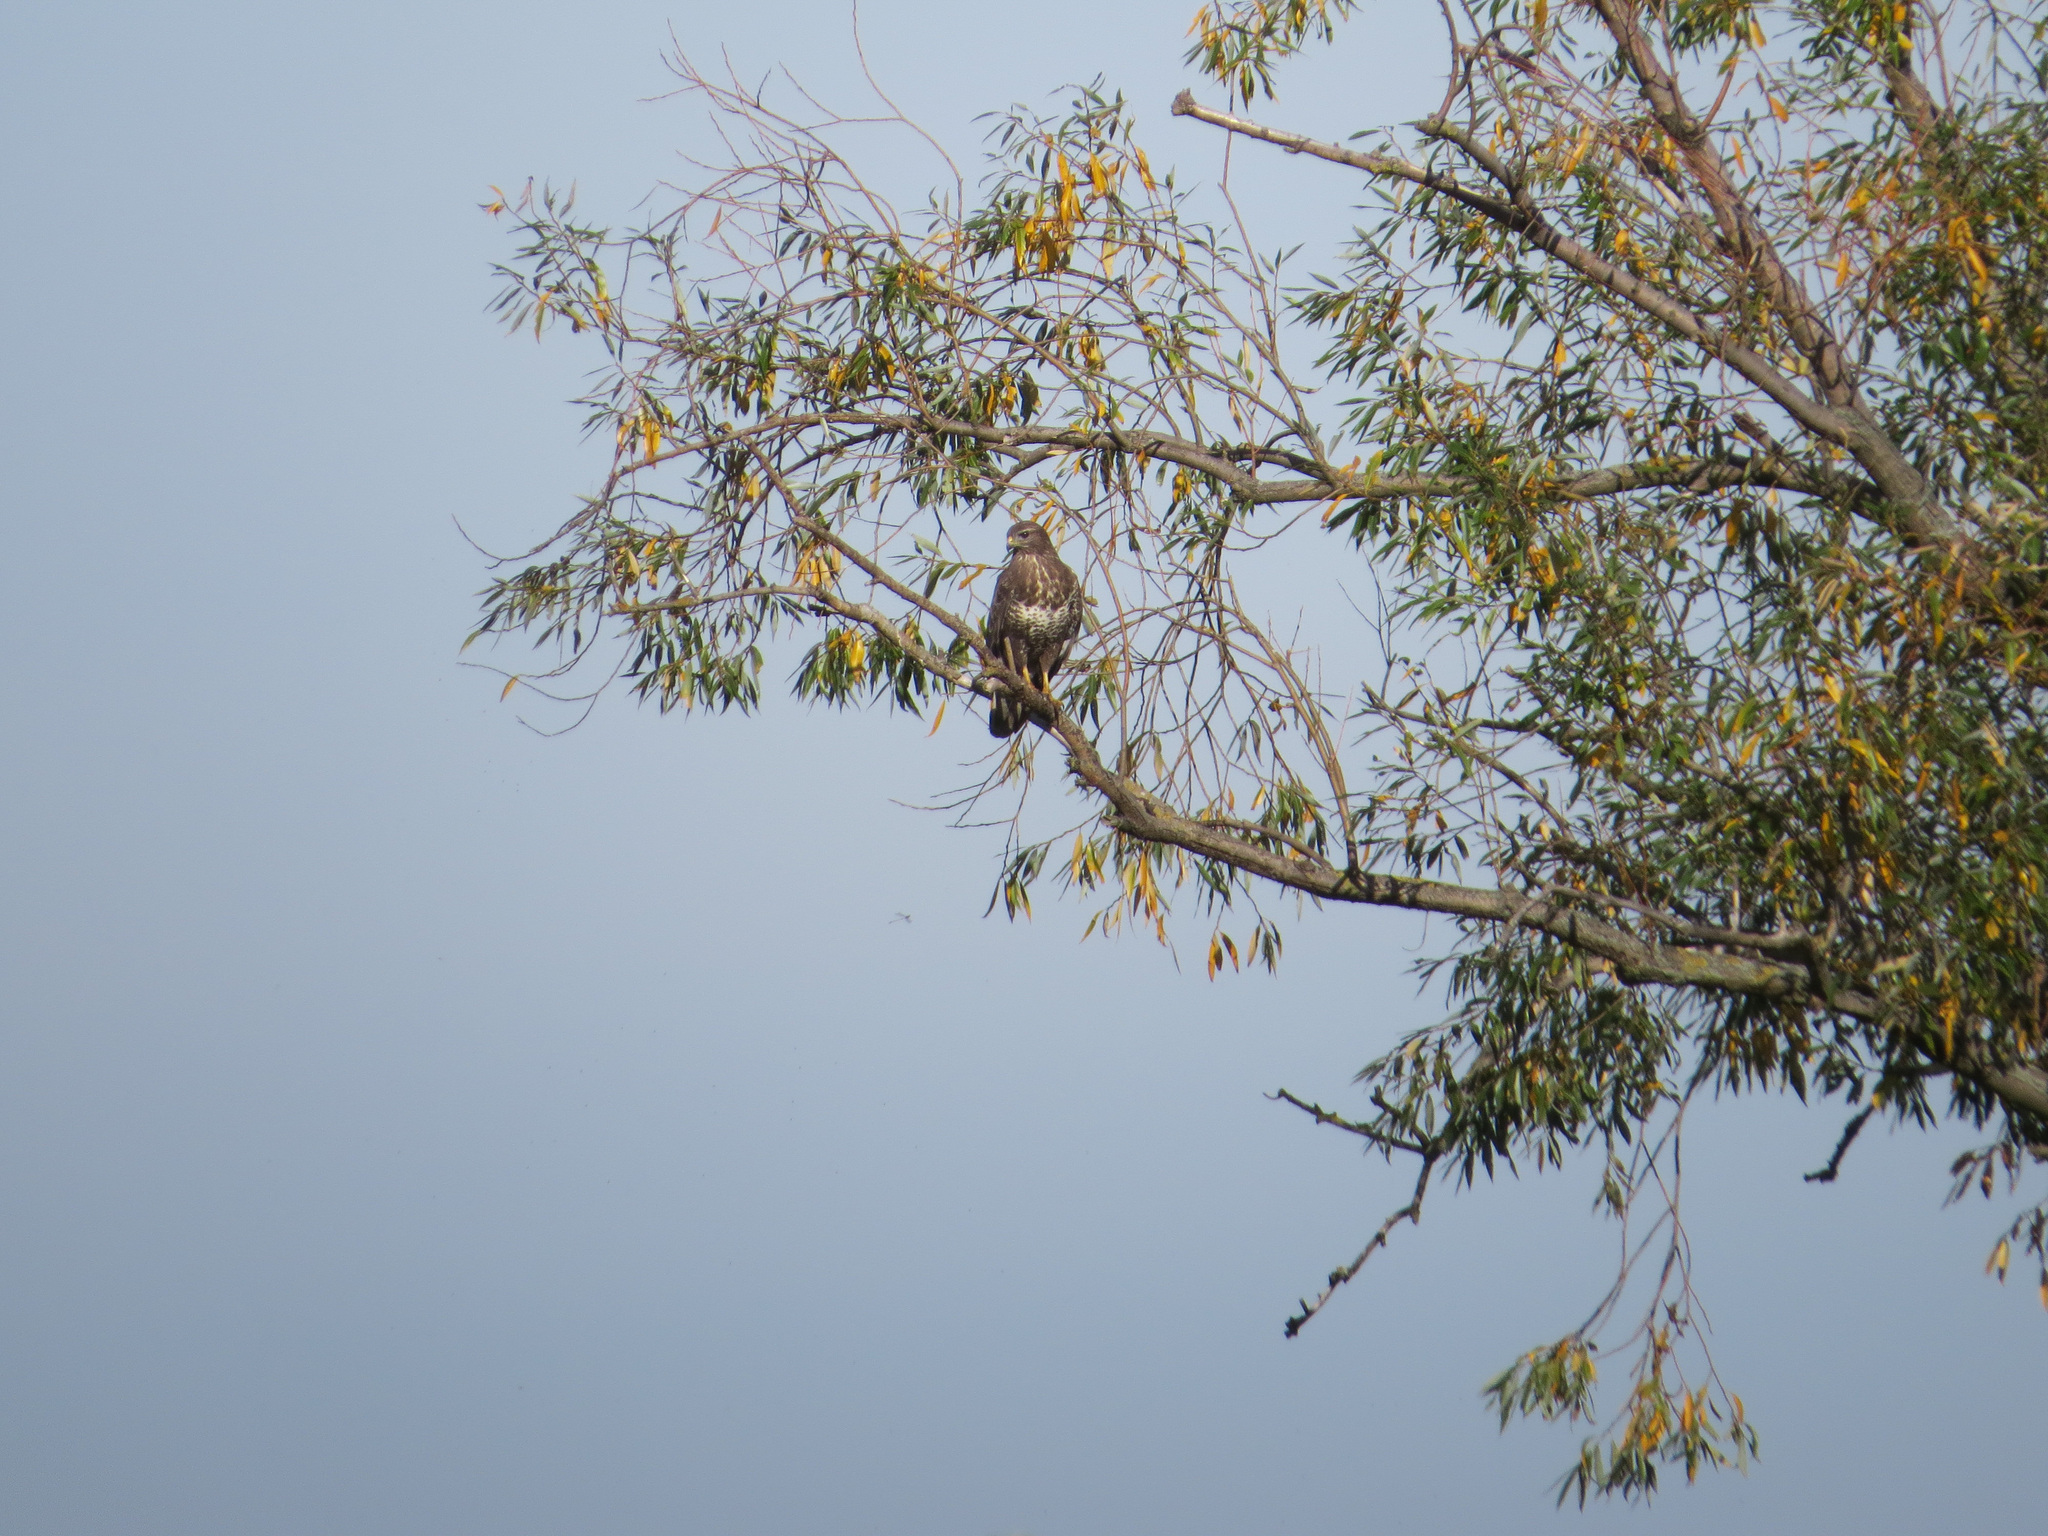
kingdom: Animalia
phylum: Chordata
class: Aves
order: Accipitriformes
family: Accipitridae
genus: Buteo
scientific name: Buteo buteo
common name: Common buzzard
